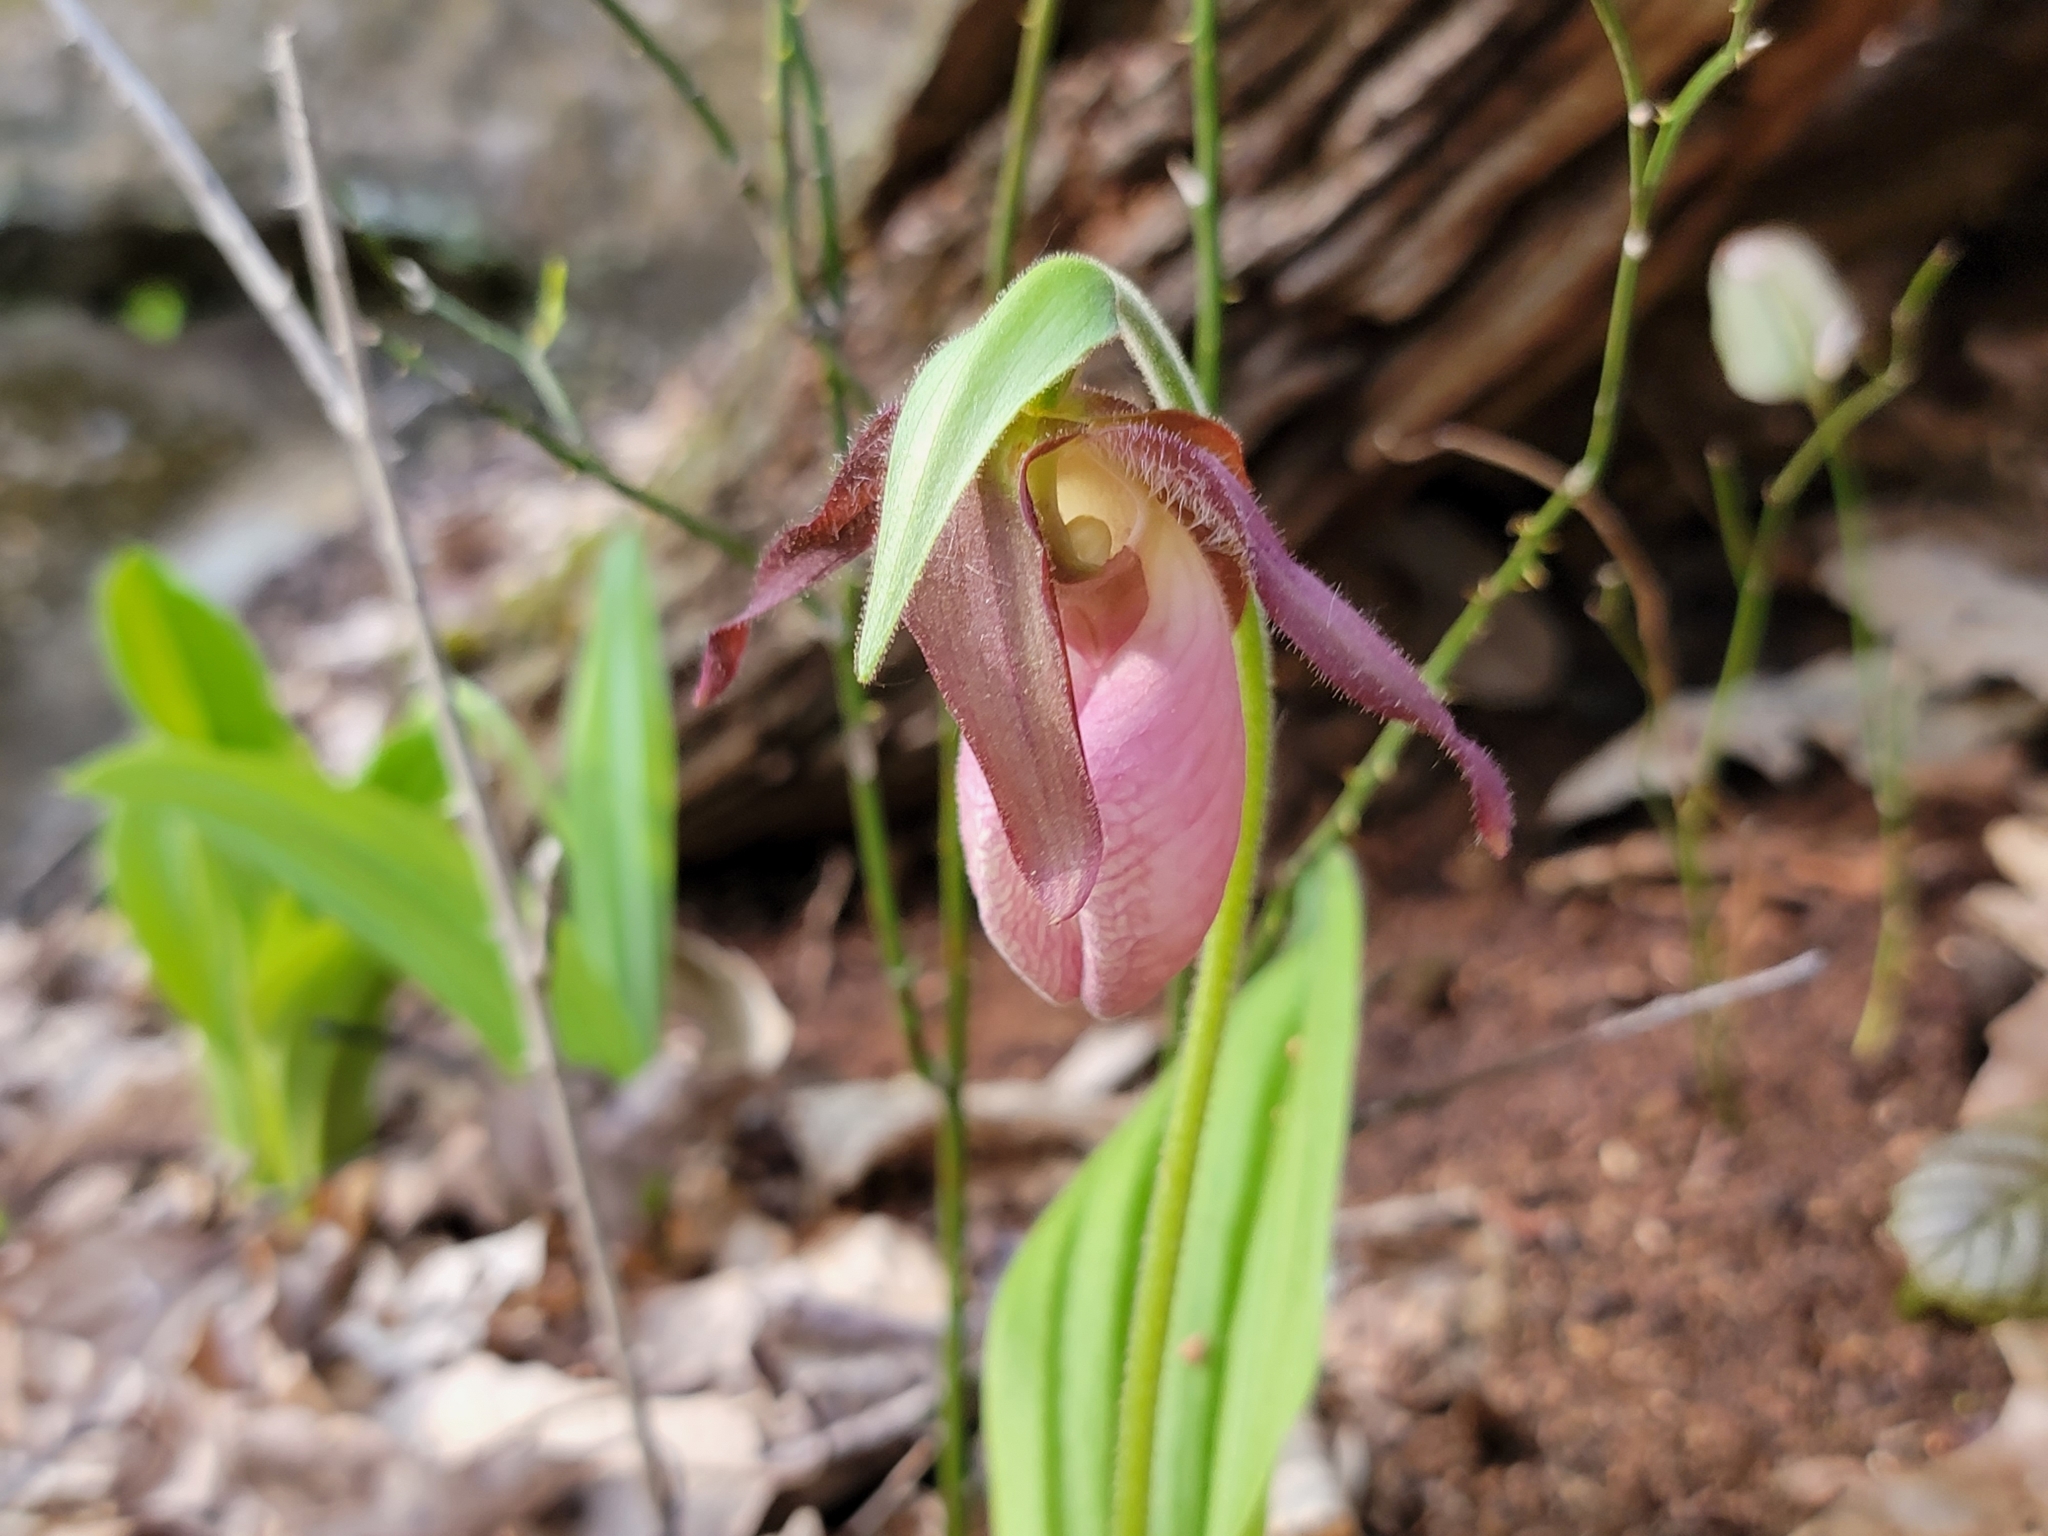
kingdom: Plantae
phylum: Tracheophyta
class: Liliopsida
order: Asparagales
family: Orchidaceae
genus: Cypripedium
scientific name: Cypripedium acaule
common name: Pink lady's-slipper
